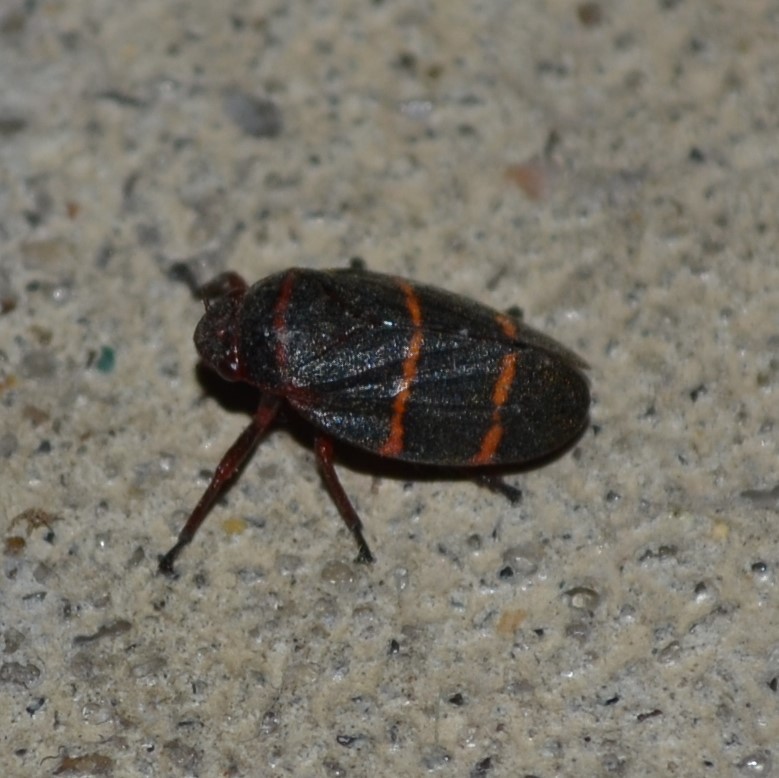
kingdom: Animalia
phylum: Arthropoda
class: Insecta
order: Hemiptera
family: Cercopidae
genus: Prosapia
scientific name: Prosapia bicincta
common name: Twolined spittlebug
